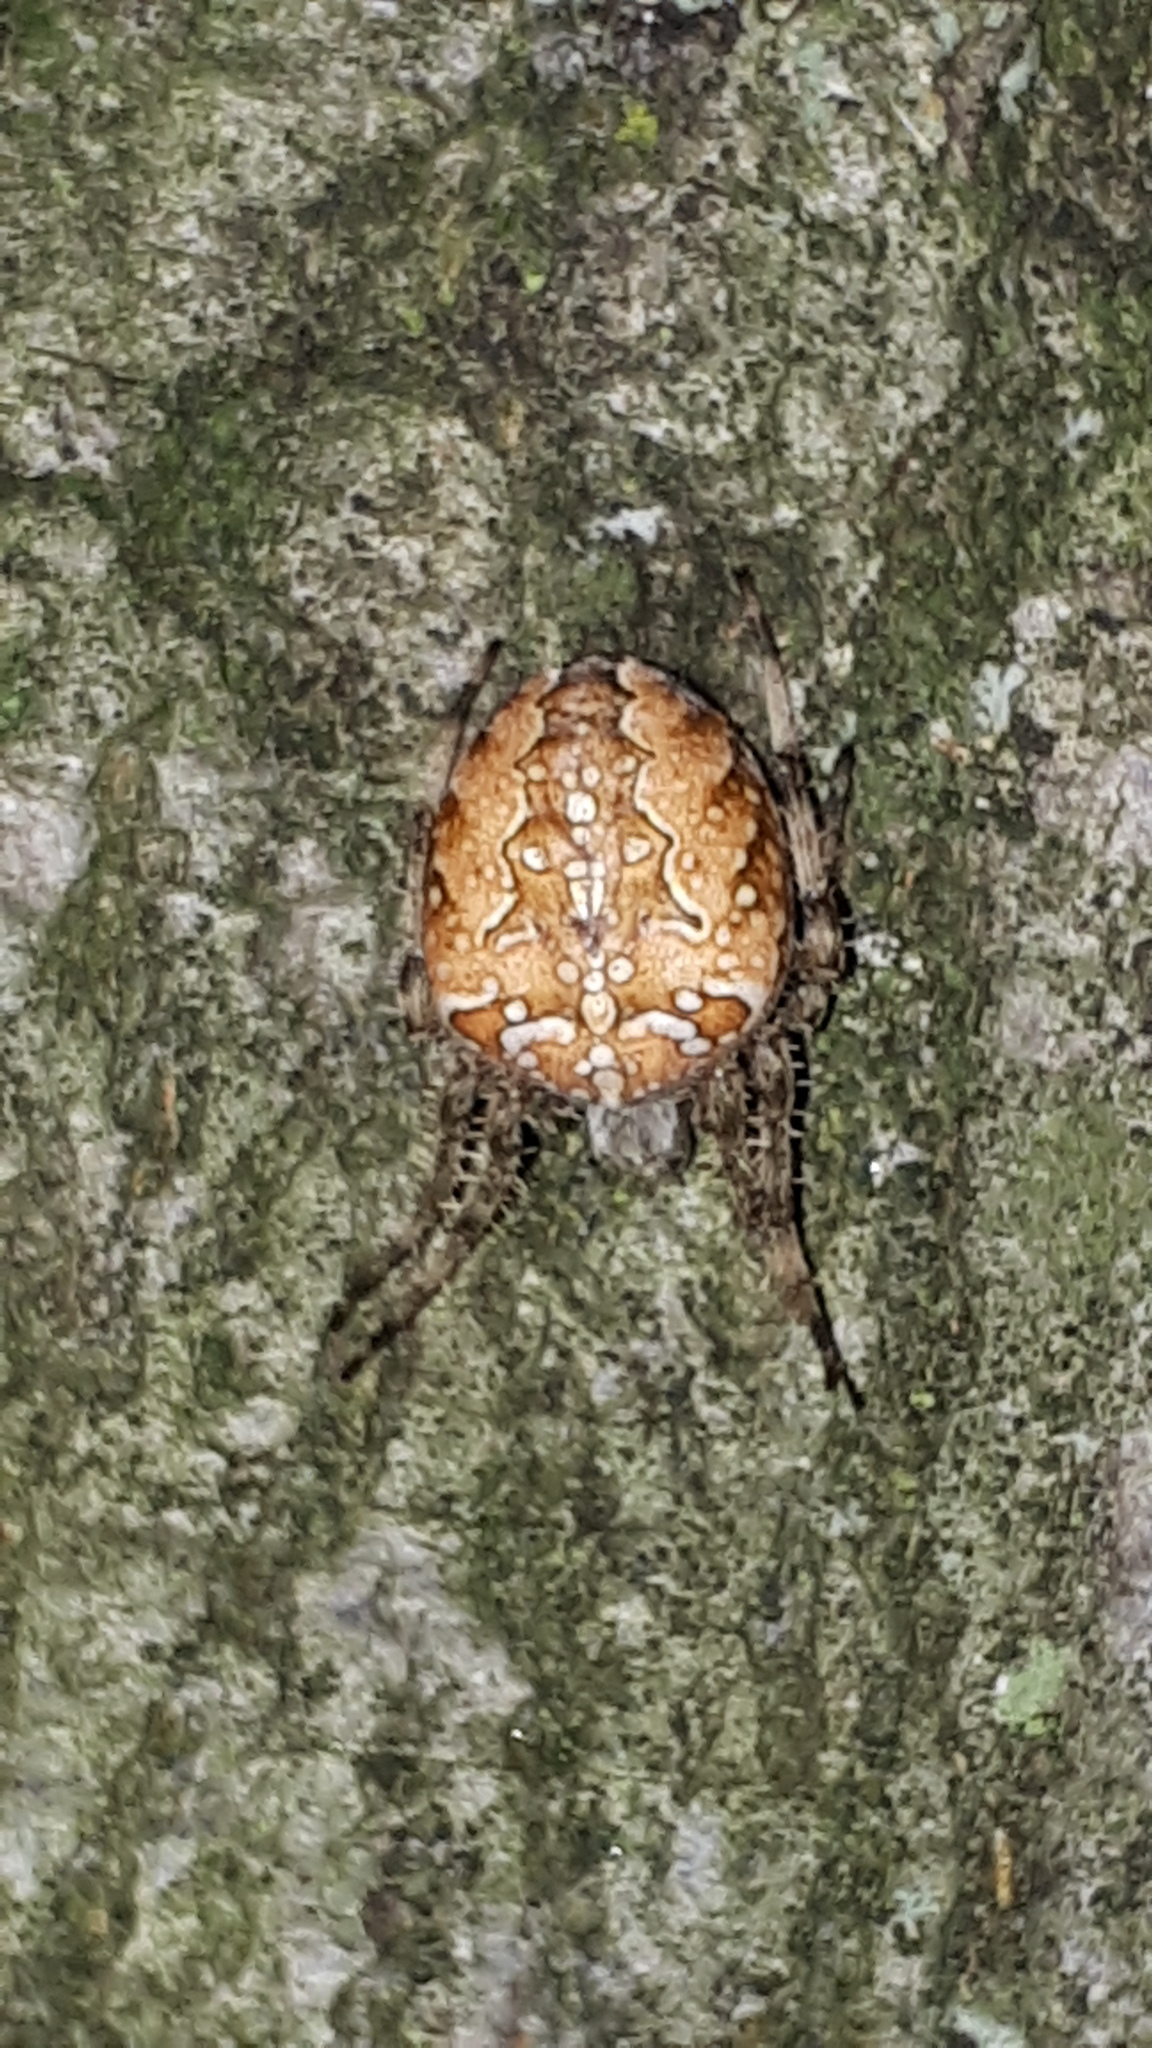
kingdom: Animalia
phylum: Arthropoda
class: Arachnida
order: Araneae
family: Araneidae
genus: Araneus
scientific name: Araneus diadematus
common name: Cross orbweaver
